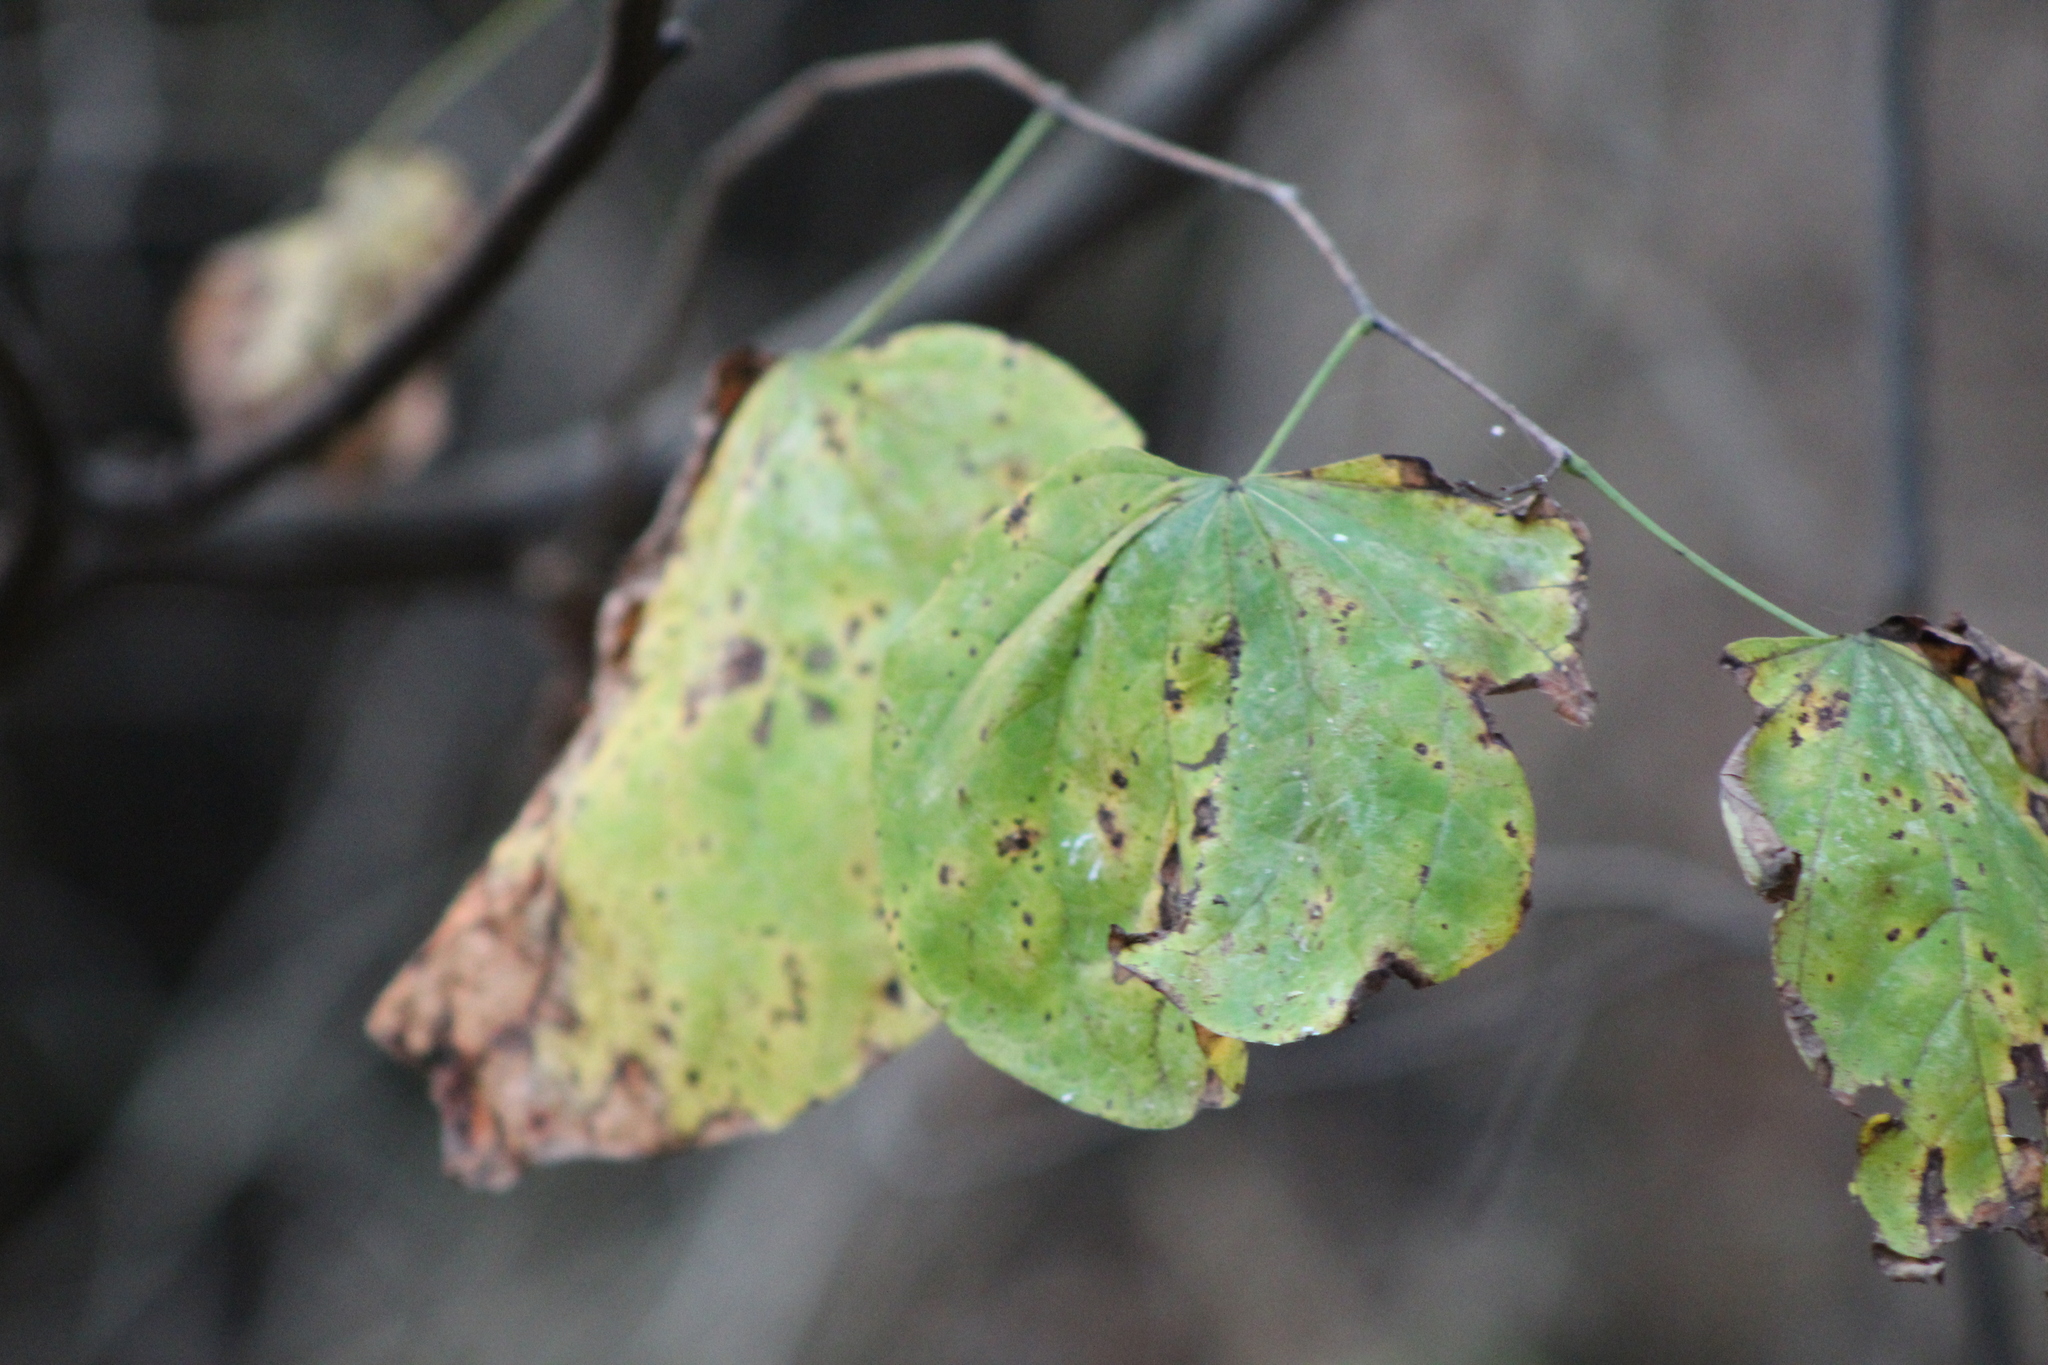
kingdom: Plantae
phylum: Tracheophyta
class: Magnoliopsida
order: Fabales
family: Fabaceae
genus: Cercis
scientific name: Cercis canadensis
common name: Eastern redbud
